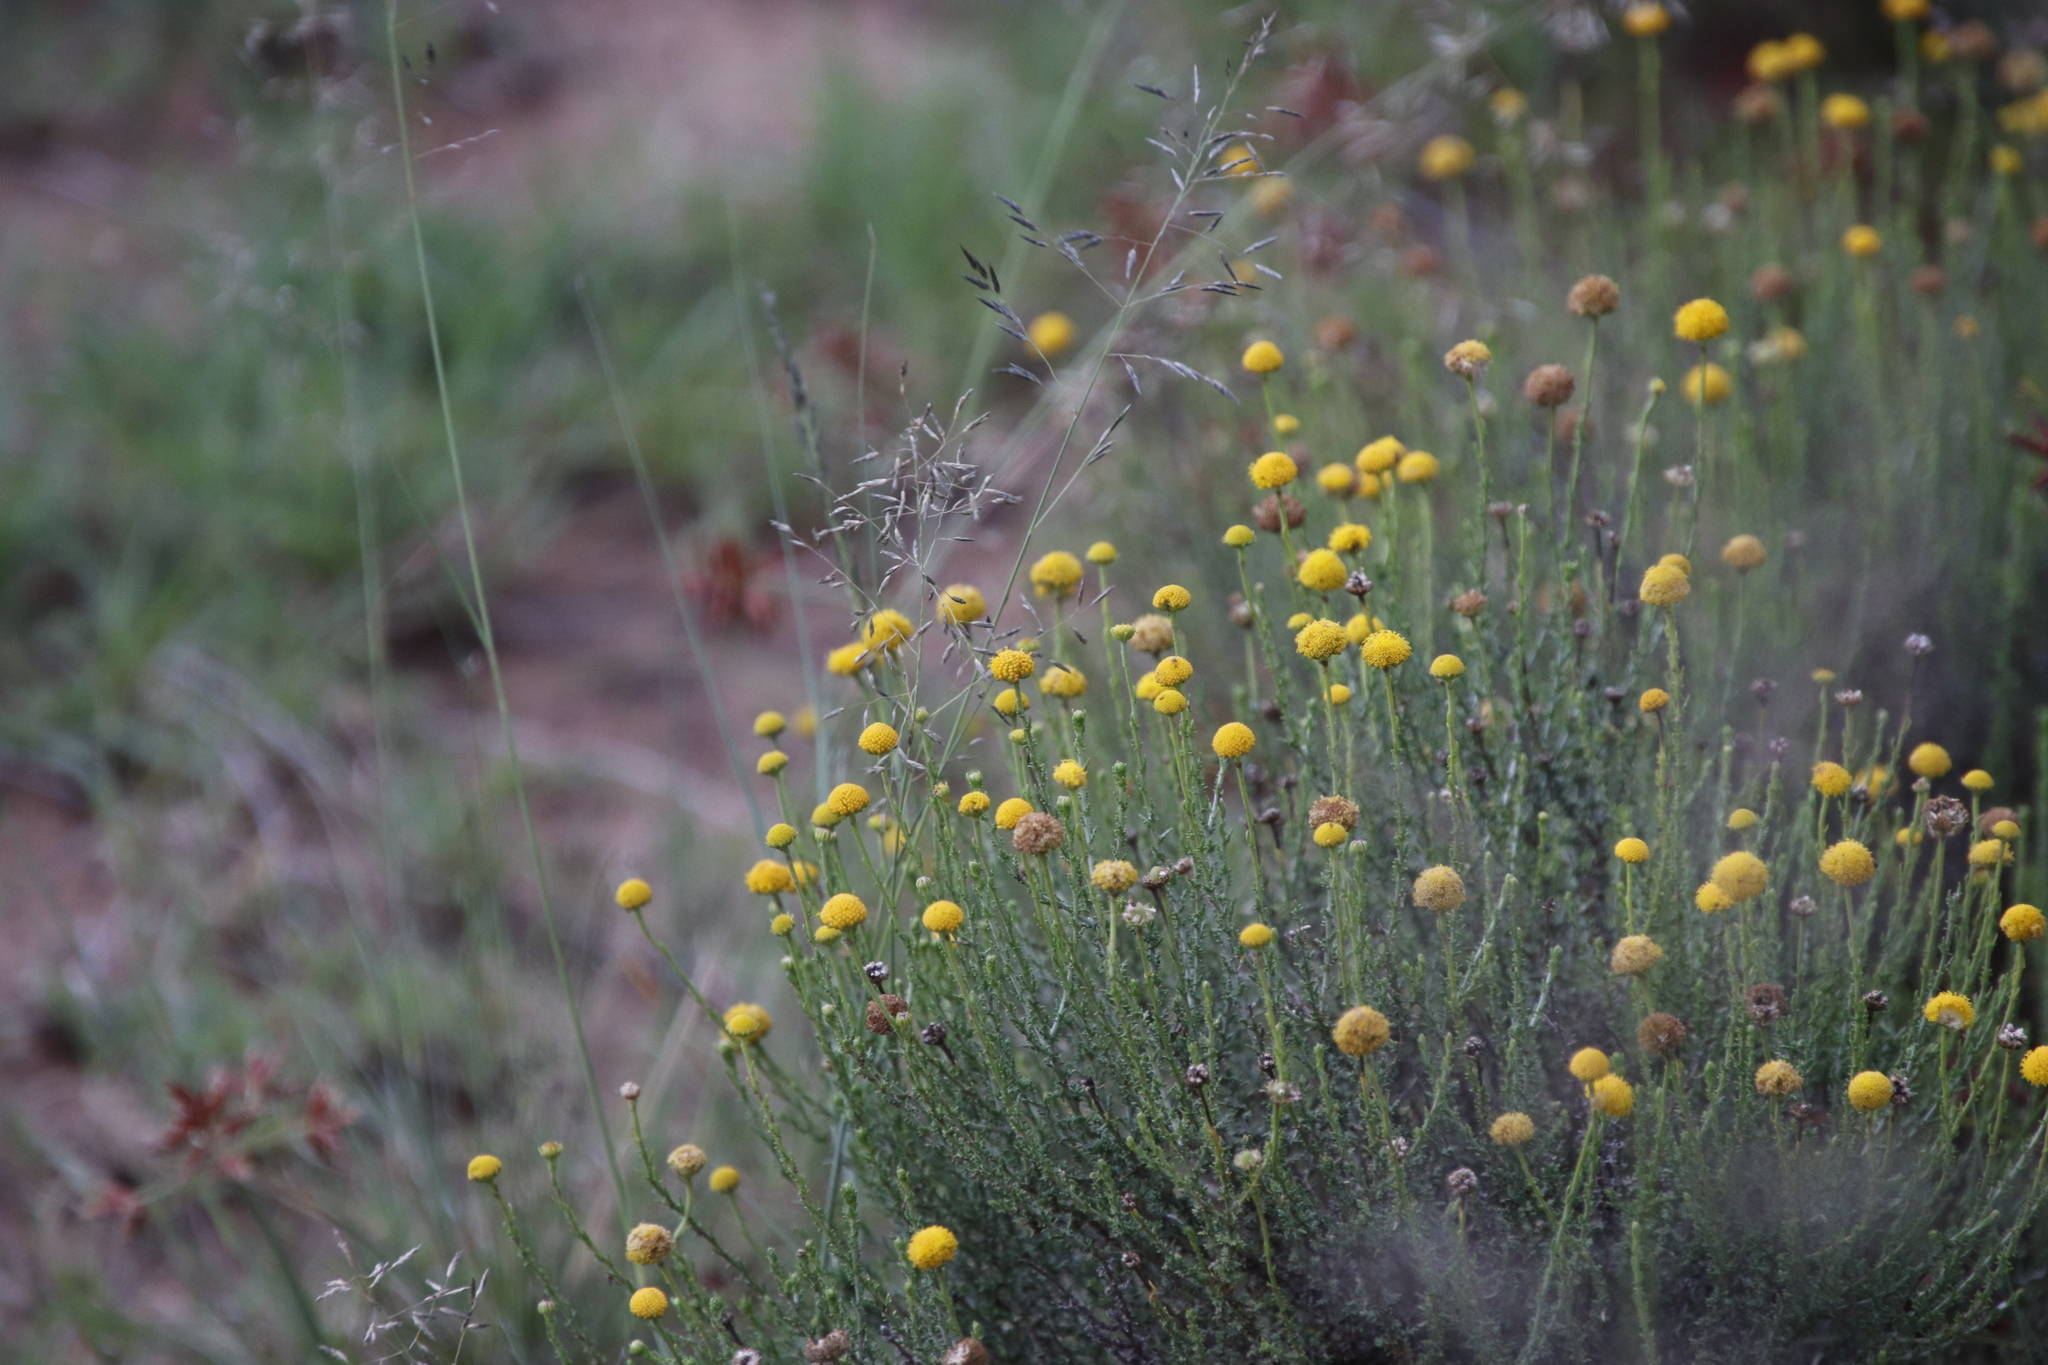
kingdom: Plantae
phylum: Tracheophyta
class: Magnoliopsida
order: Asterales
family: Asteraceae
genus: Chrysocoma
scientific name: Chrysocoma ciliata
